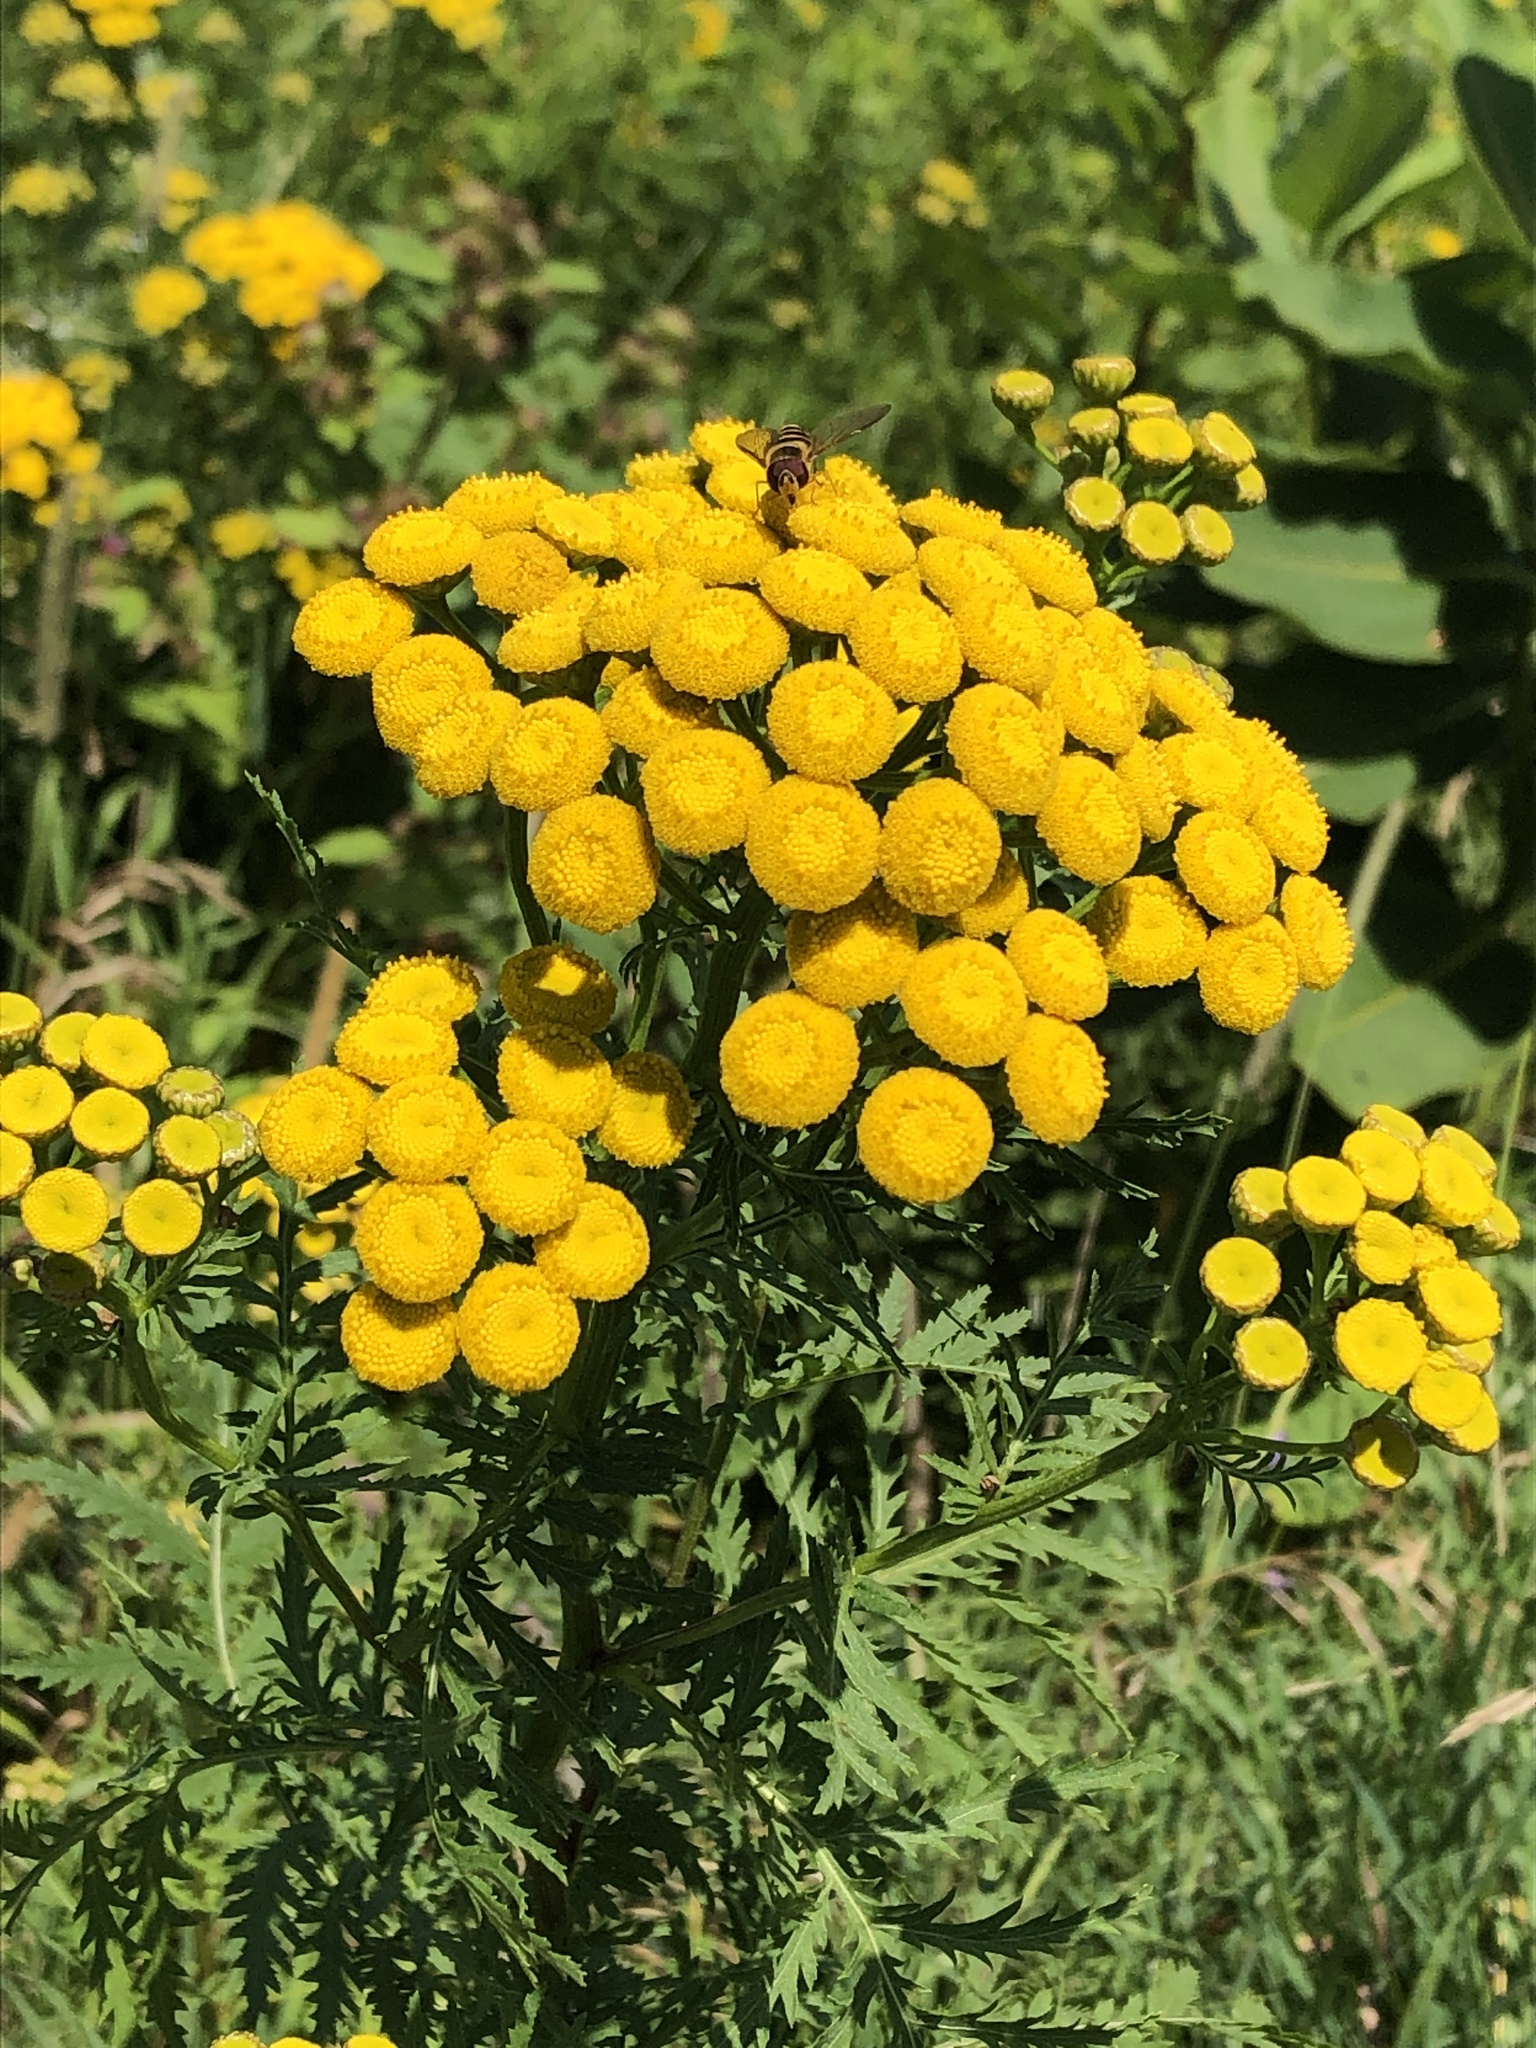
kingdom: Plantae
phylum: Tracheophyta
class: Magnoliopsida
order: Asterales
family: Asteraceae
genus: Tanacetum
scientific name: Tanacetum vulgare
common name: Common tansy
